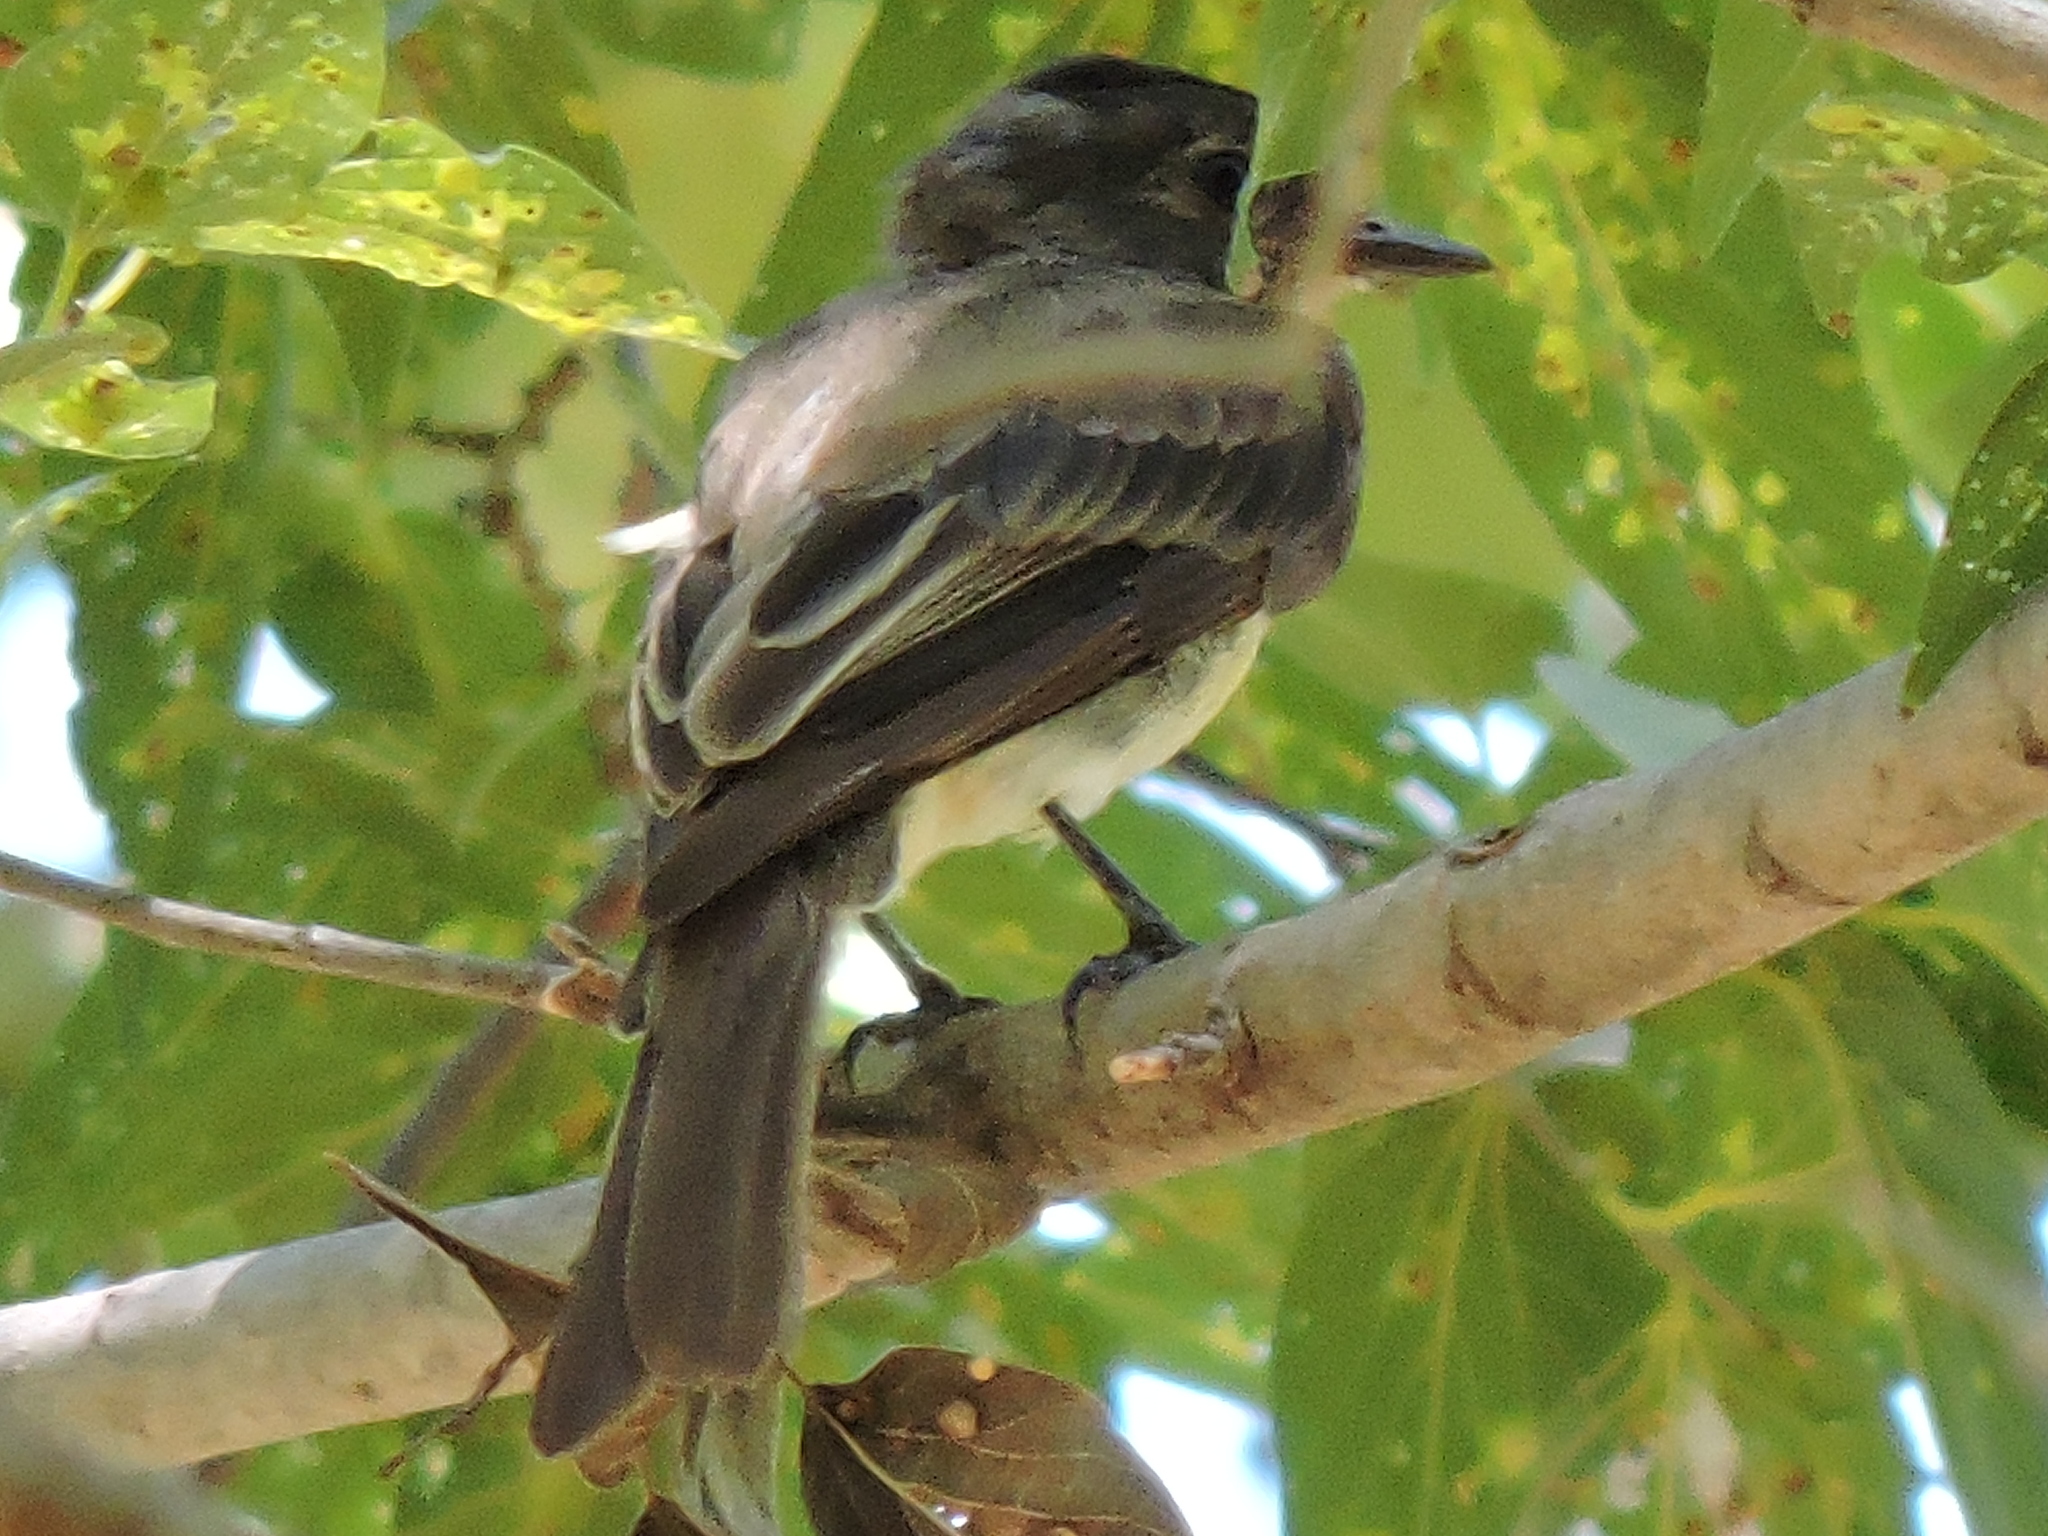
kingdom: Animalia
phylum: Chordata
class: Aves
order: Passeriformes
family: Tyrannidae
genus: Sayornis
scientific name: Sayornis phoebe
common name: Eastern phoebe
